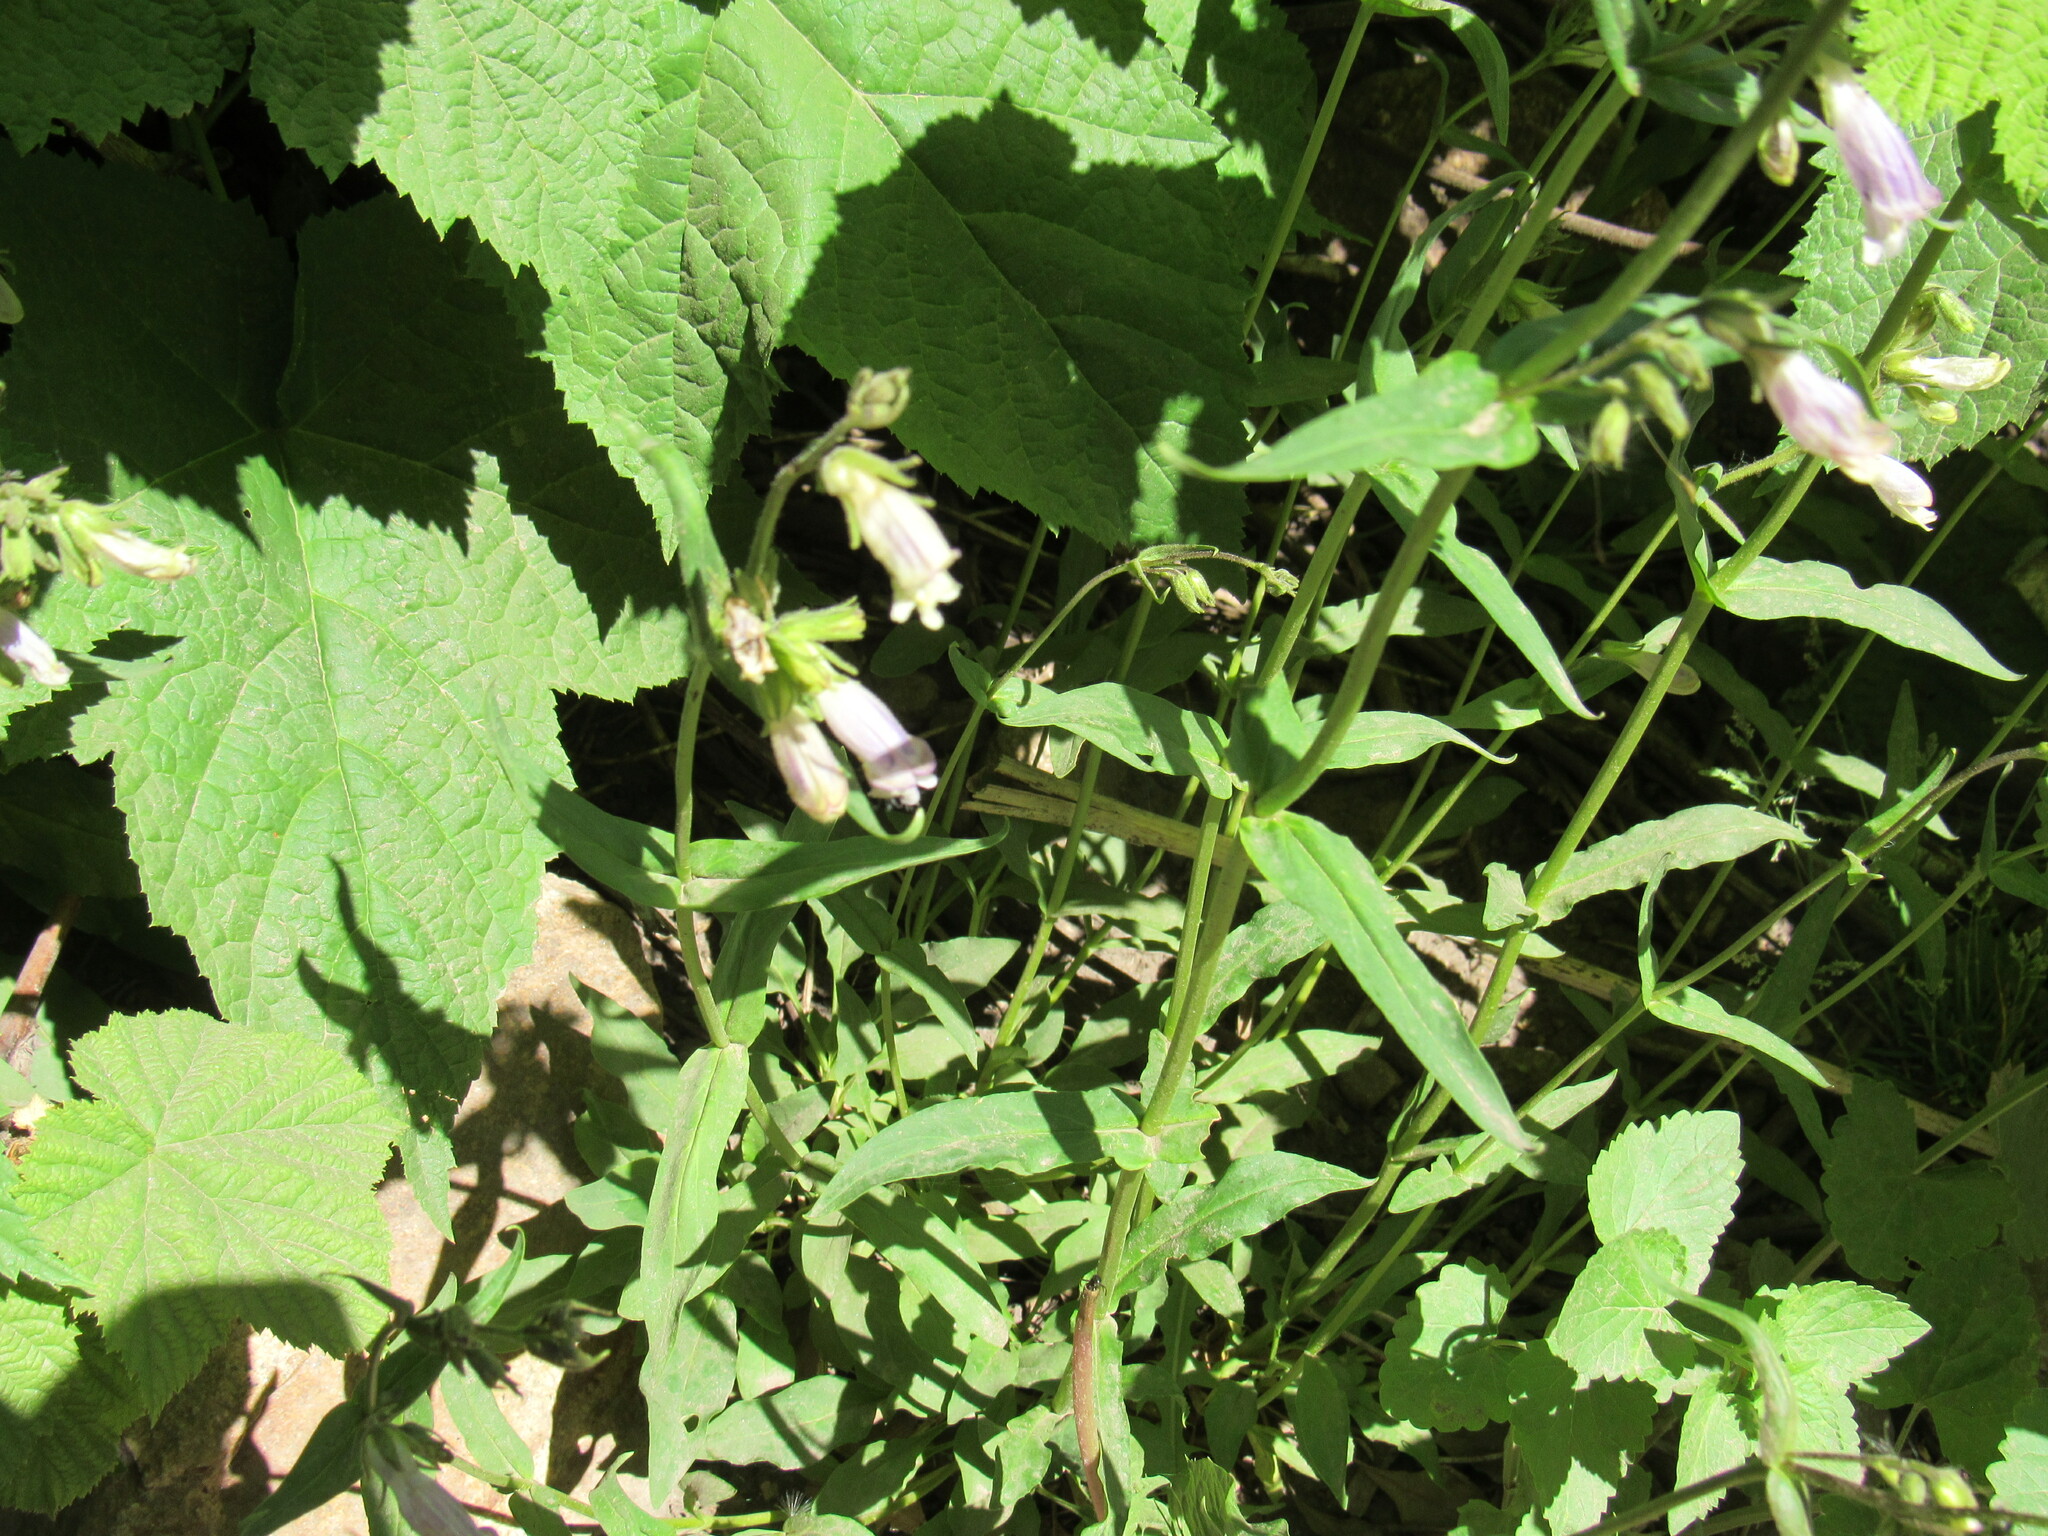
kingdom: Plantae
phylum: Tracheophyta
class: Magnoliopsida
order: Lamiales
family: Plantaginaceae
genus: Penstemon
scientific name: Penstemon whippleanus
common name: Whipple's penstemon
